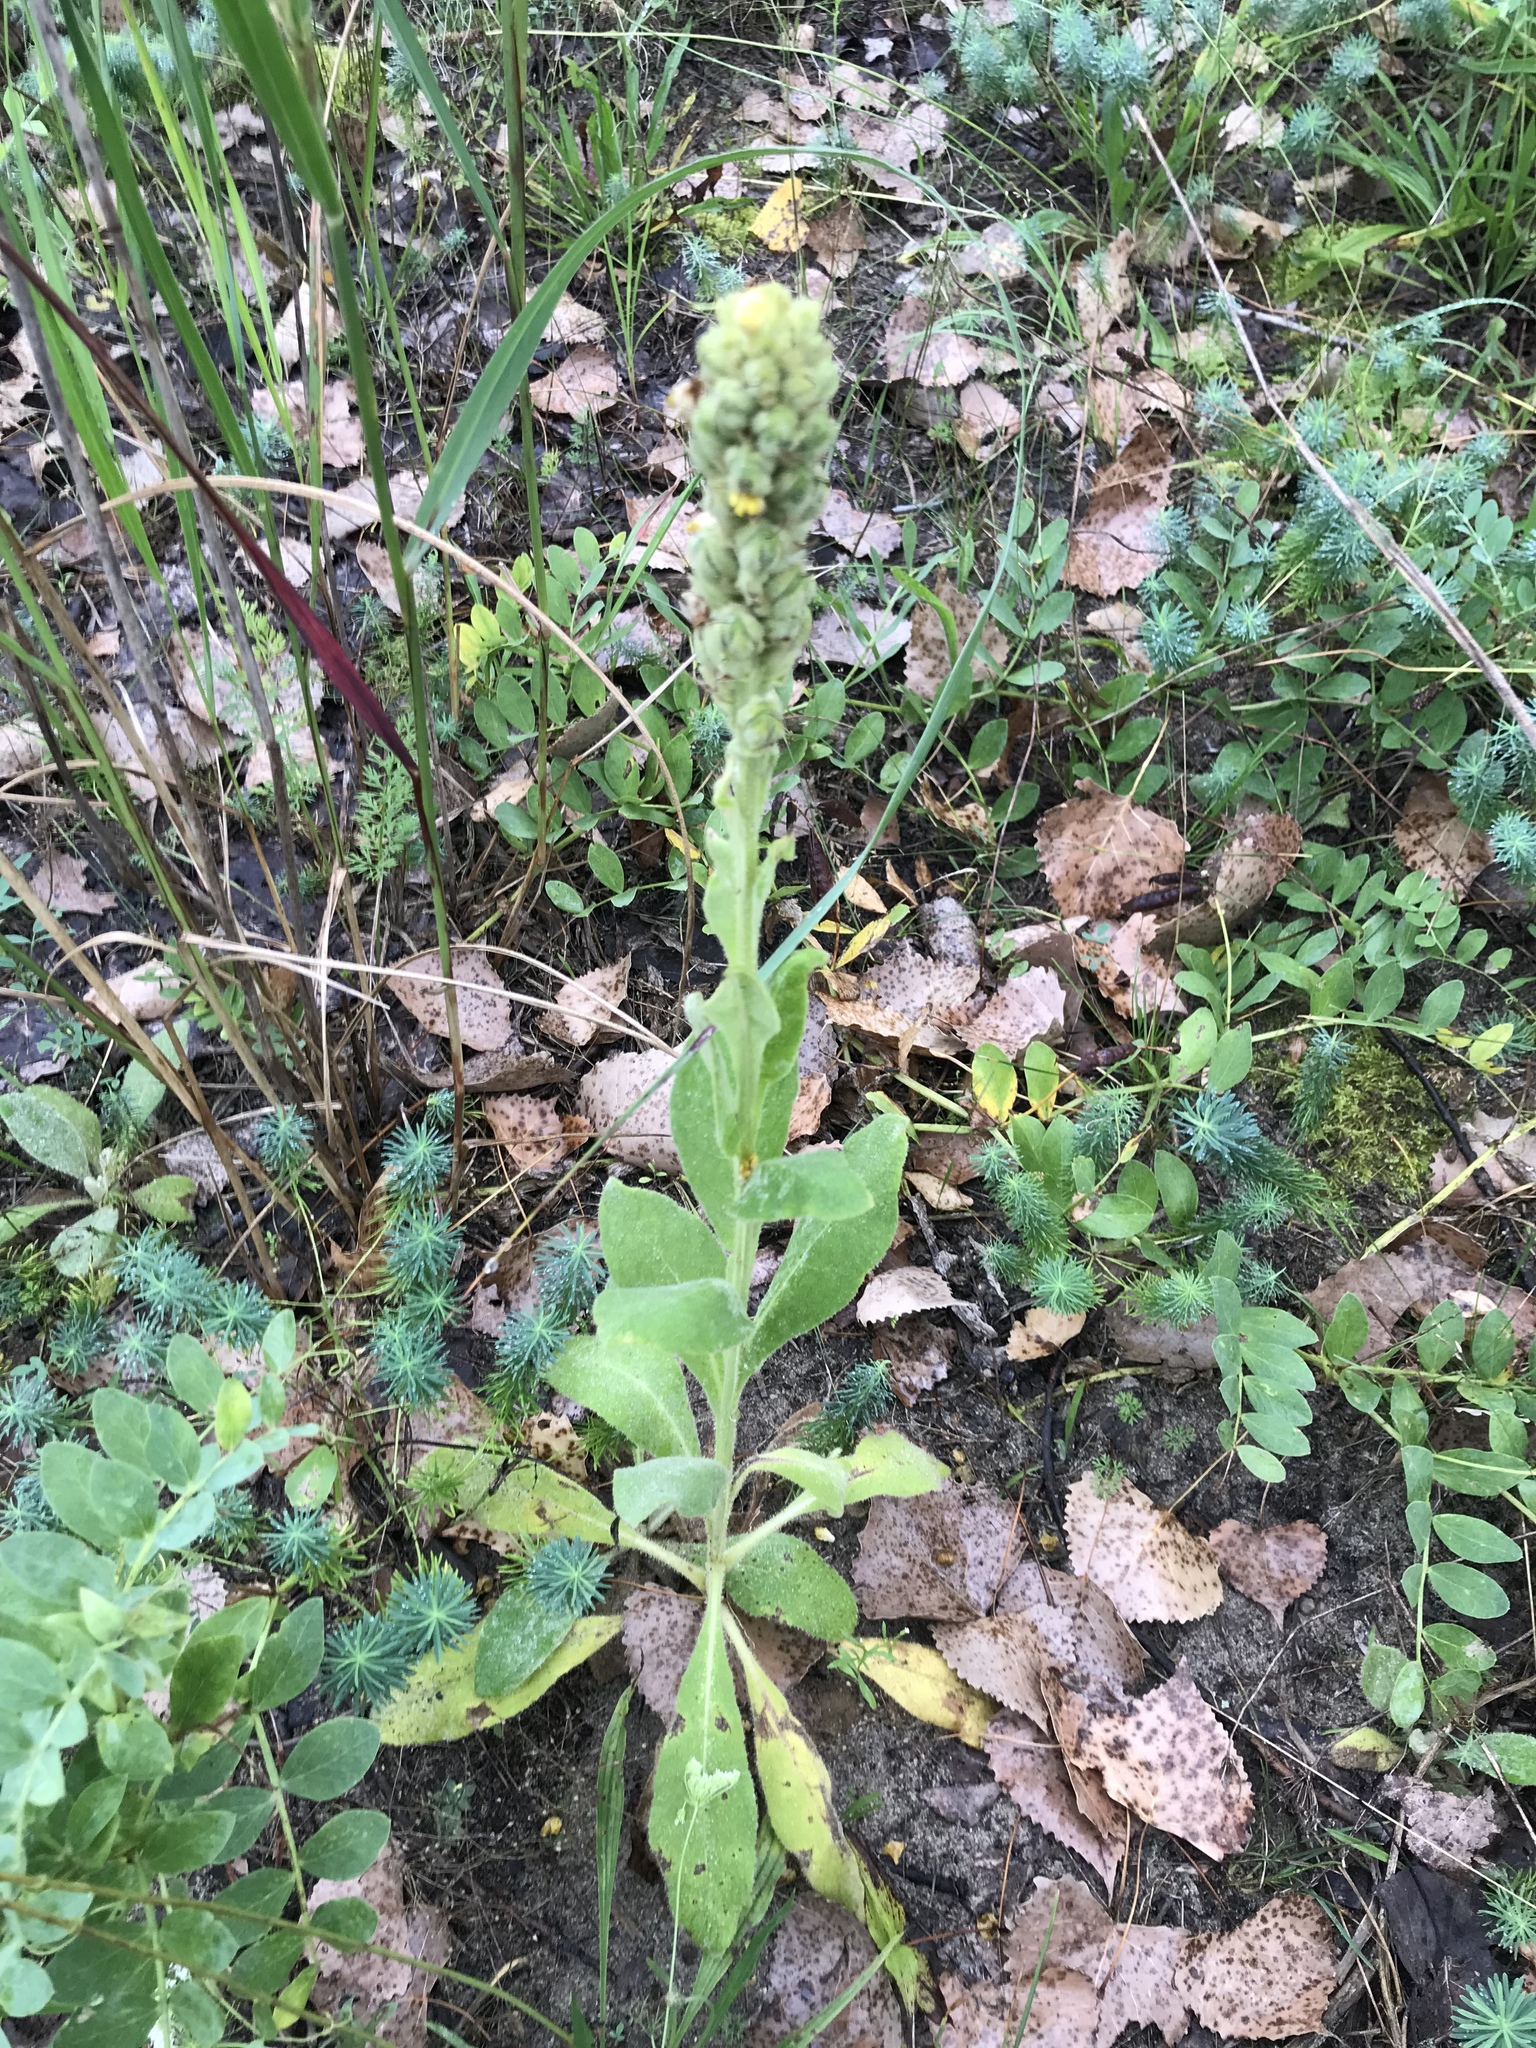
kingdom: Plantae
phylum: Tracheophyta
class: Magnoliopsida
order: Lamiales
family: Scrophulariaceae
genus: Verbascum
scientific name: Verbascum thapsus
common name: Common mullein
